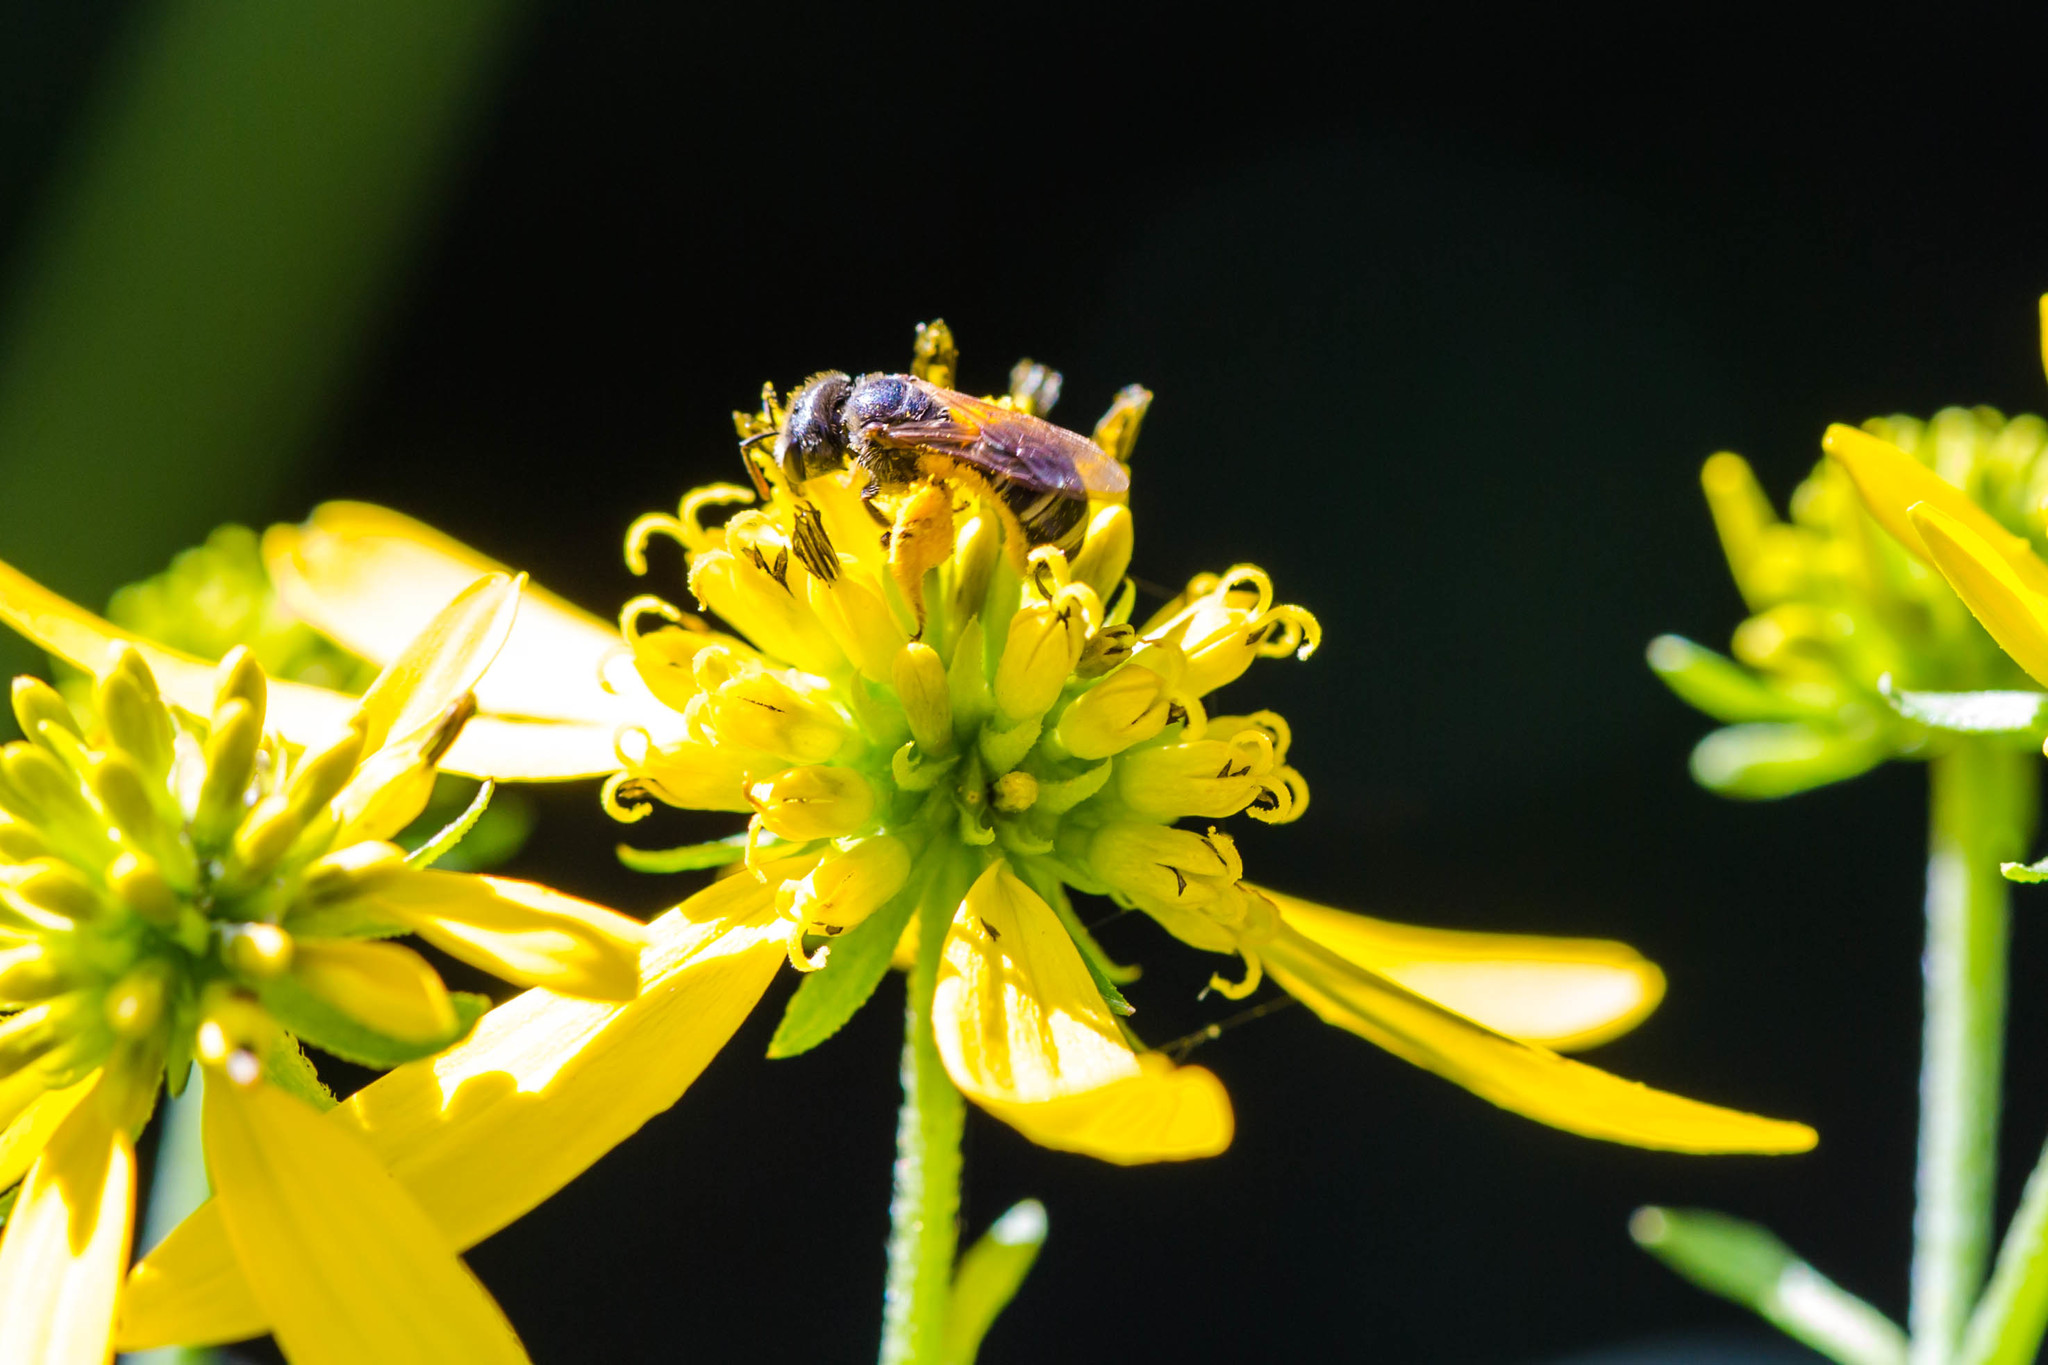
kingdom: Animalia
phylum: Arthropoda
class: Insecta
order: Hymenoptera
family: Halictidae
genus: Halictus
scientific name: Halictus ligatus
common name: Ligated furrow bee
